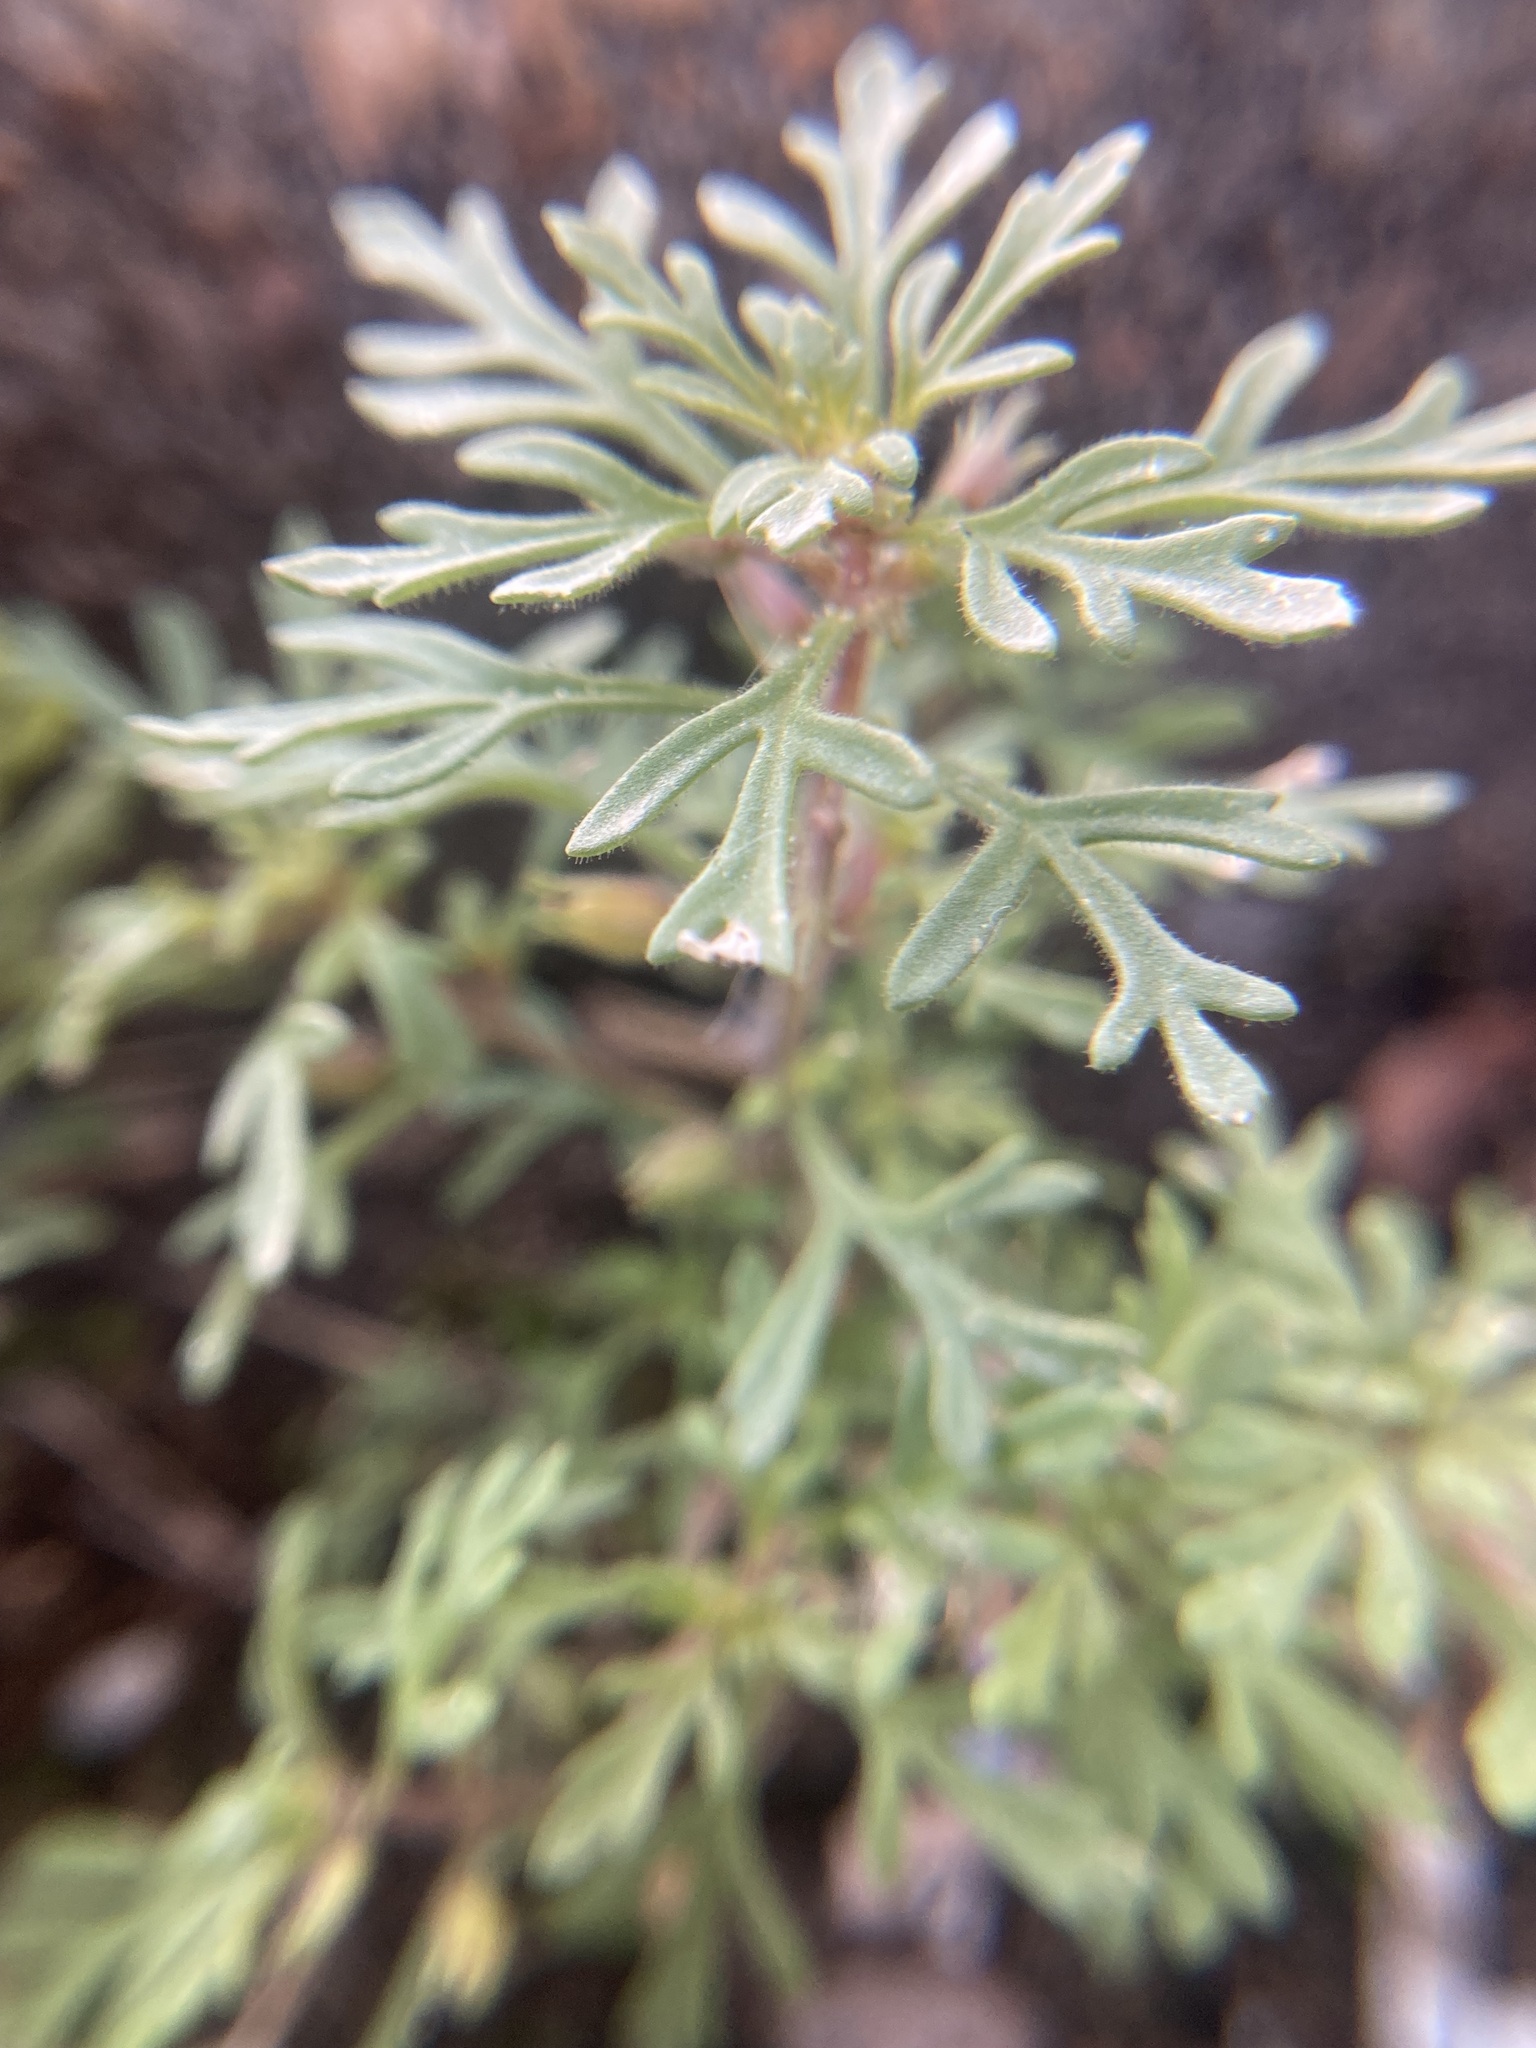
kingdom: Plantae
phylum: Tracheophyta
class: Magnoliopsida
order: Lamiales
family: Plantaginaceae
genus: Leucospora
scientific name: Leucospora multifida
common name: Narrow-leaf paleseed
